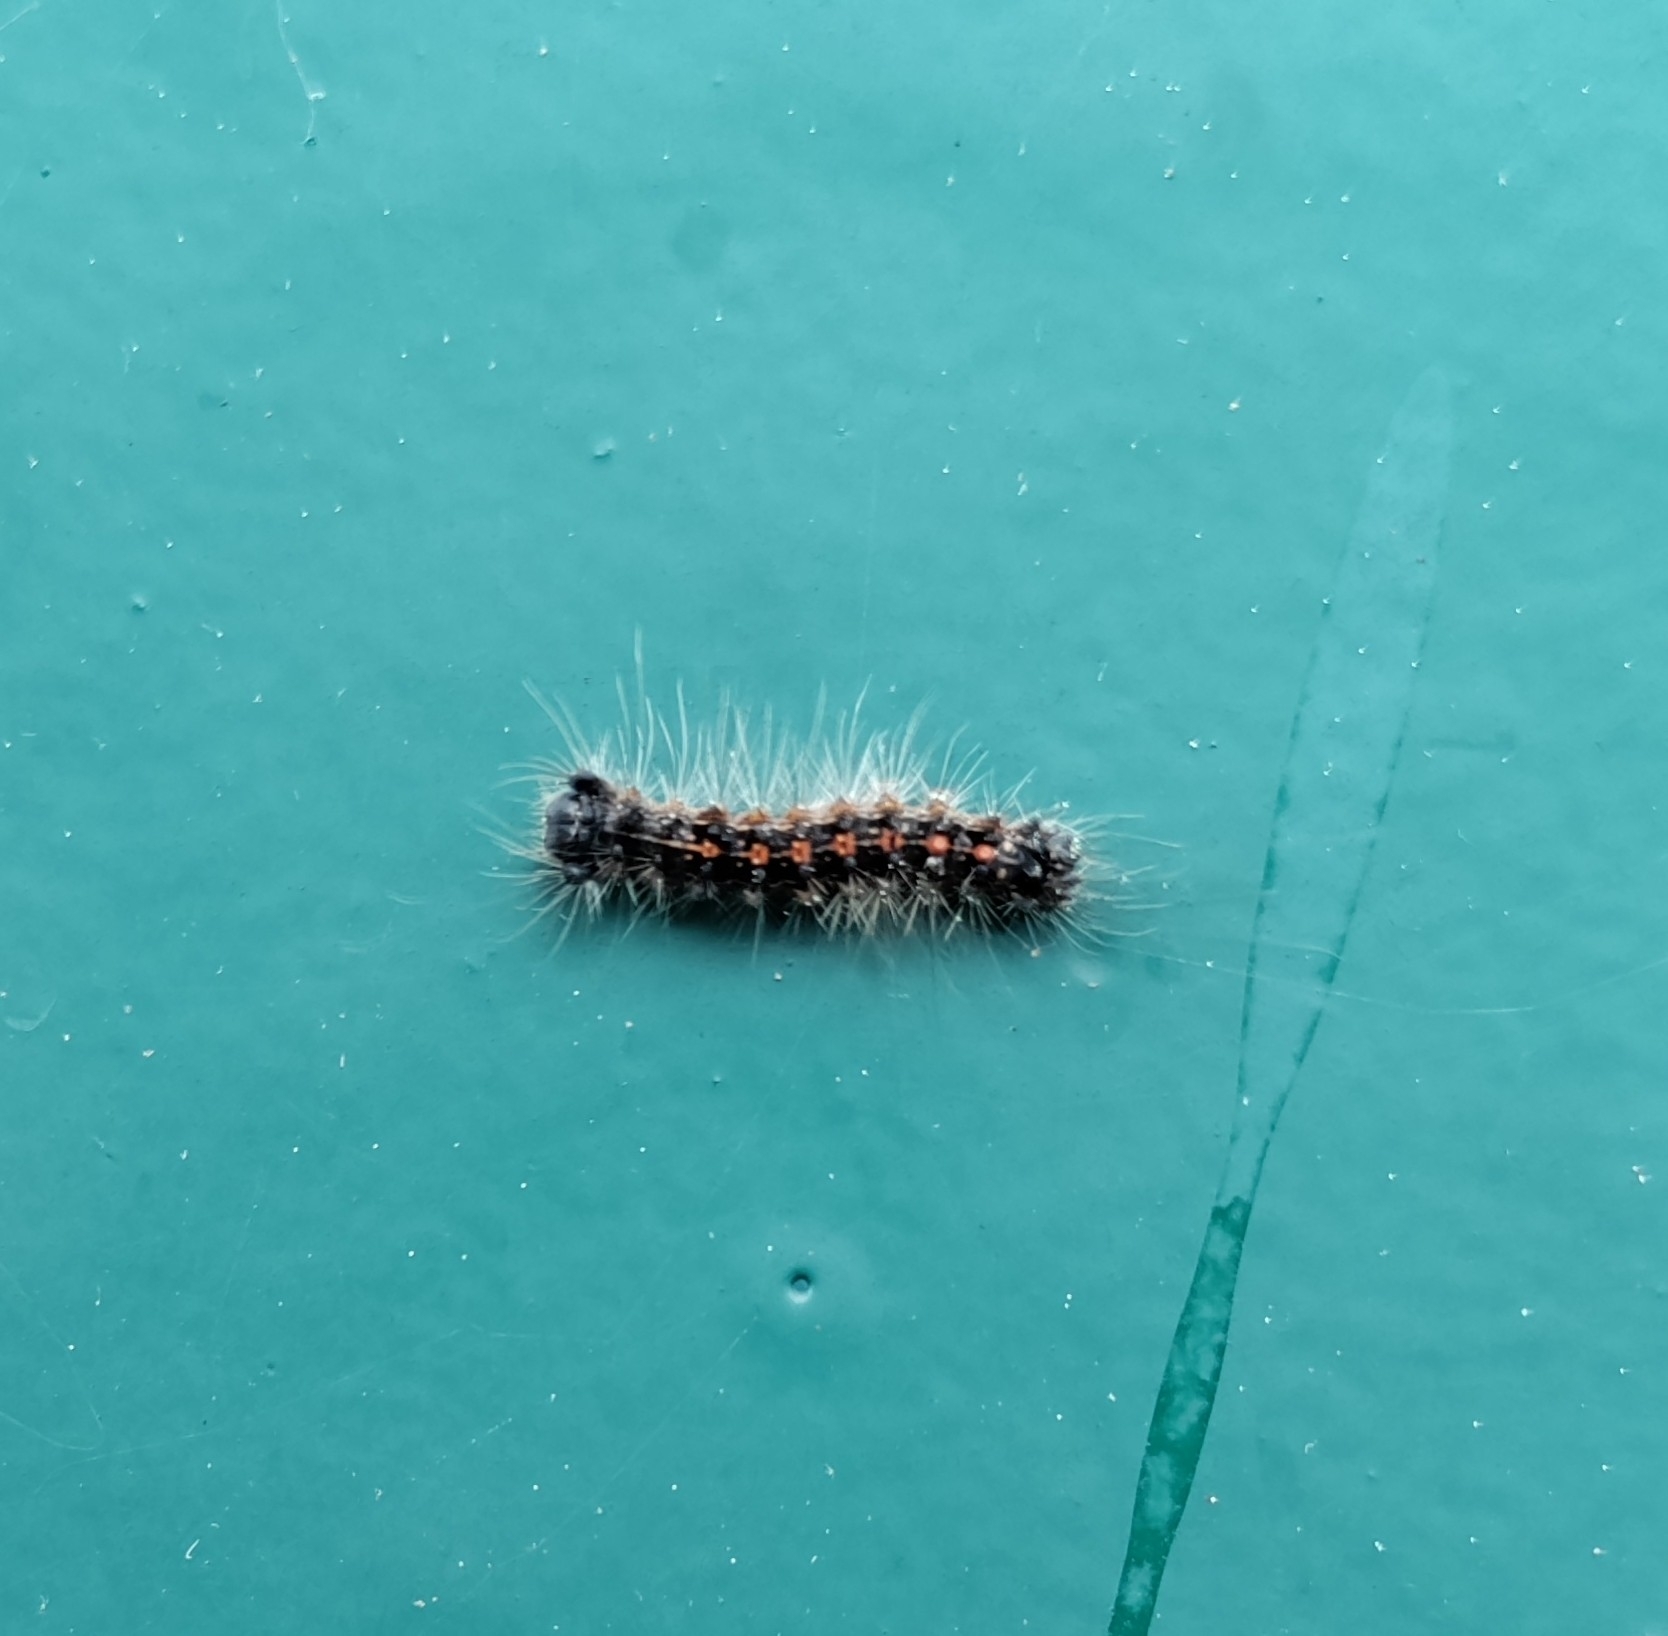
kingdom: Animalia
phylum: Arthropoda
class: Insecta
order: Lepidoptera
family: Erebidae
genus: Lymantria
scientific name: Lymantria dispar
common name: Gypsy moth
